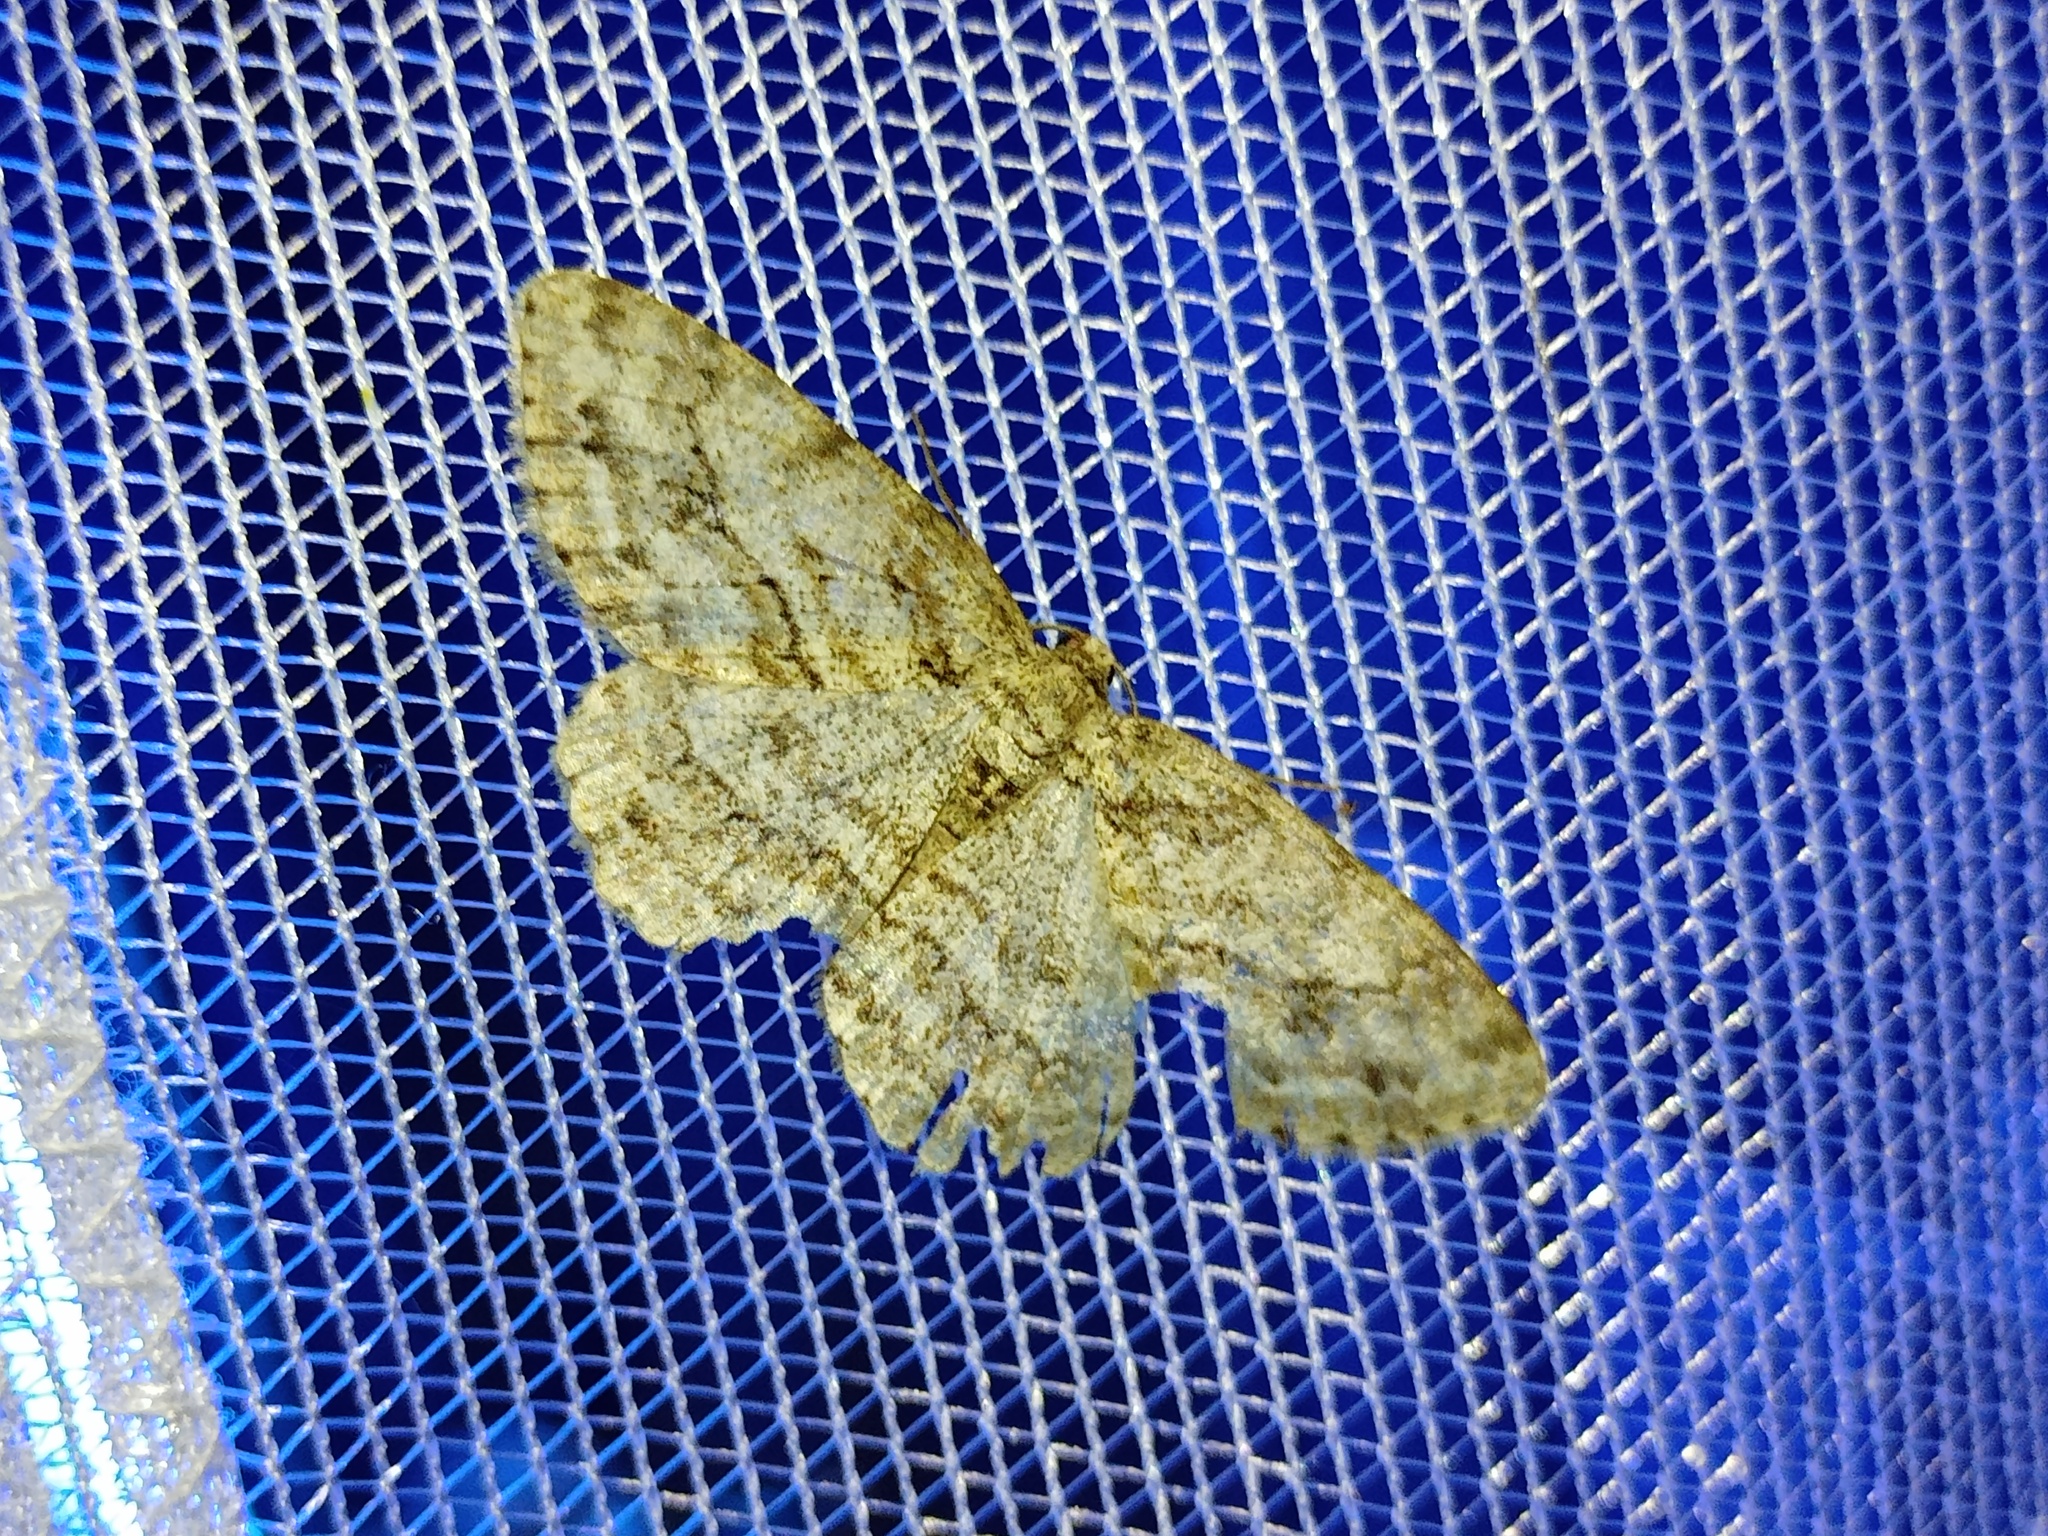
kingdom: Animalia
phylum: Arthropoda
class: Insecta
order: Lepidoptera
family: Geometridae
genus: Ectropis
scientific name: Ectropis crepuscularia
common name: Engrailed
